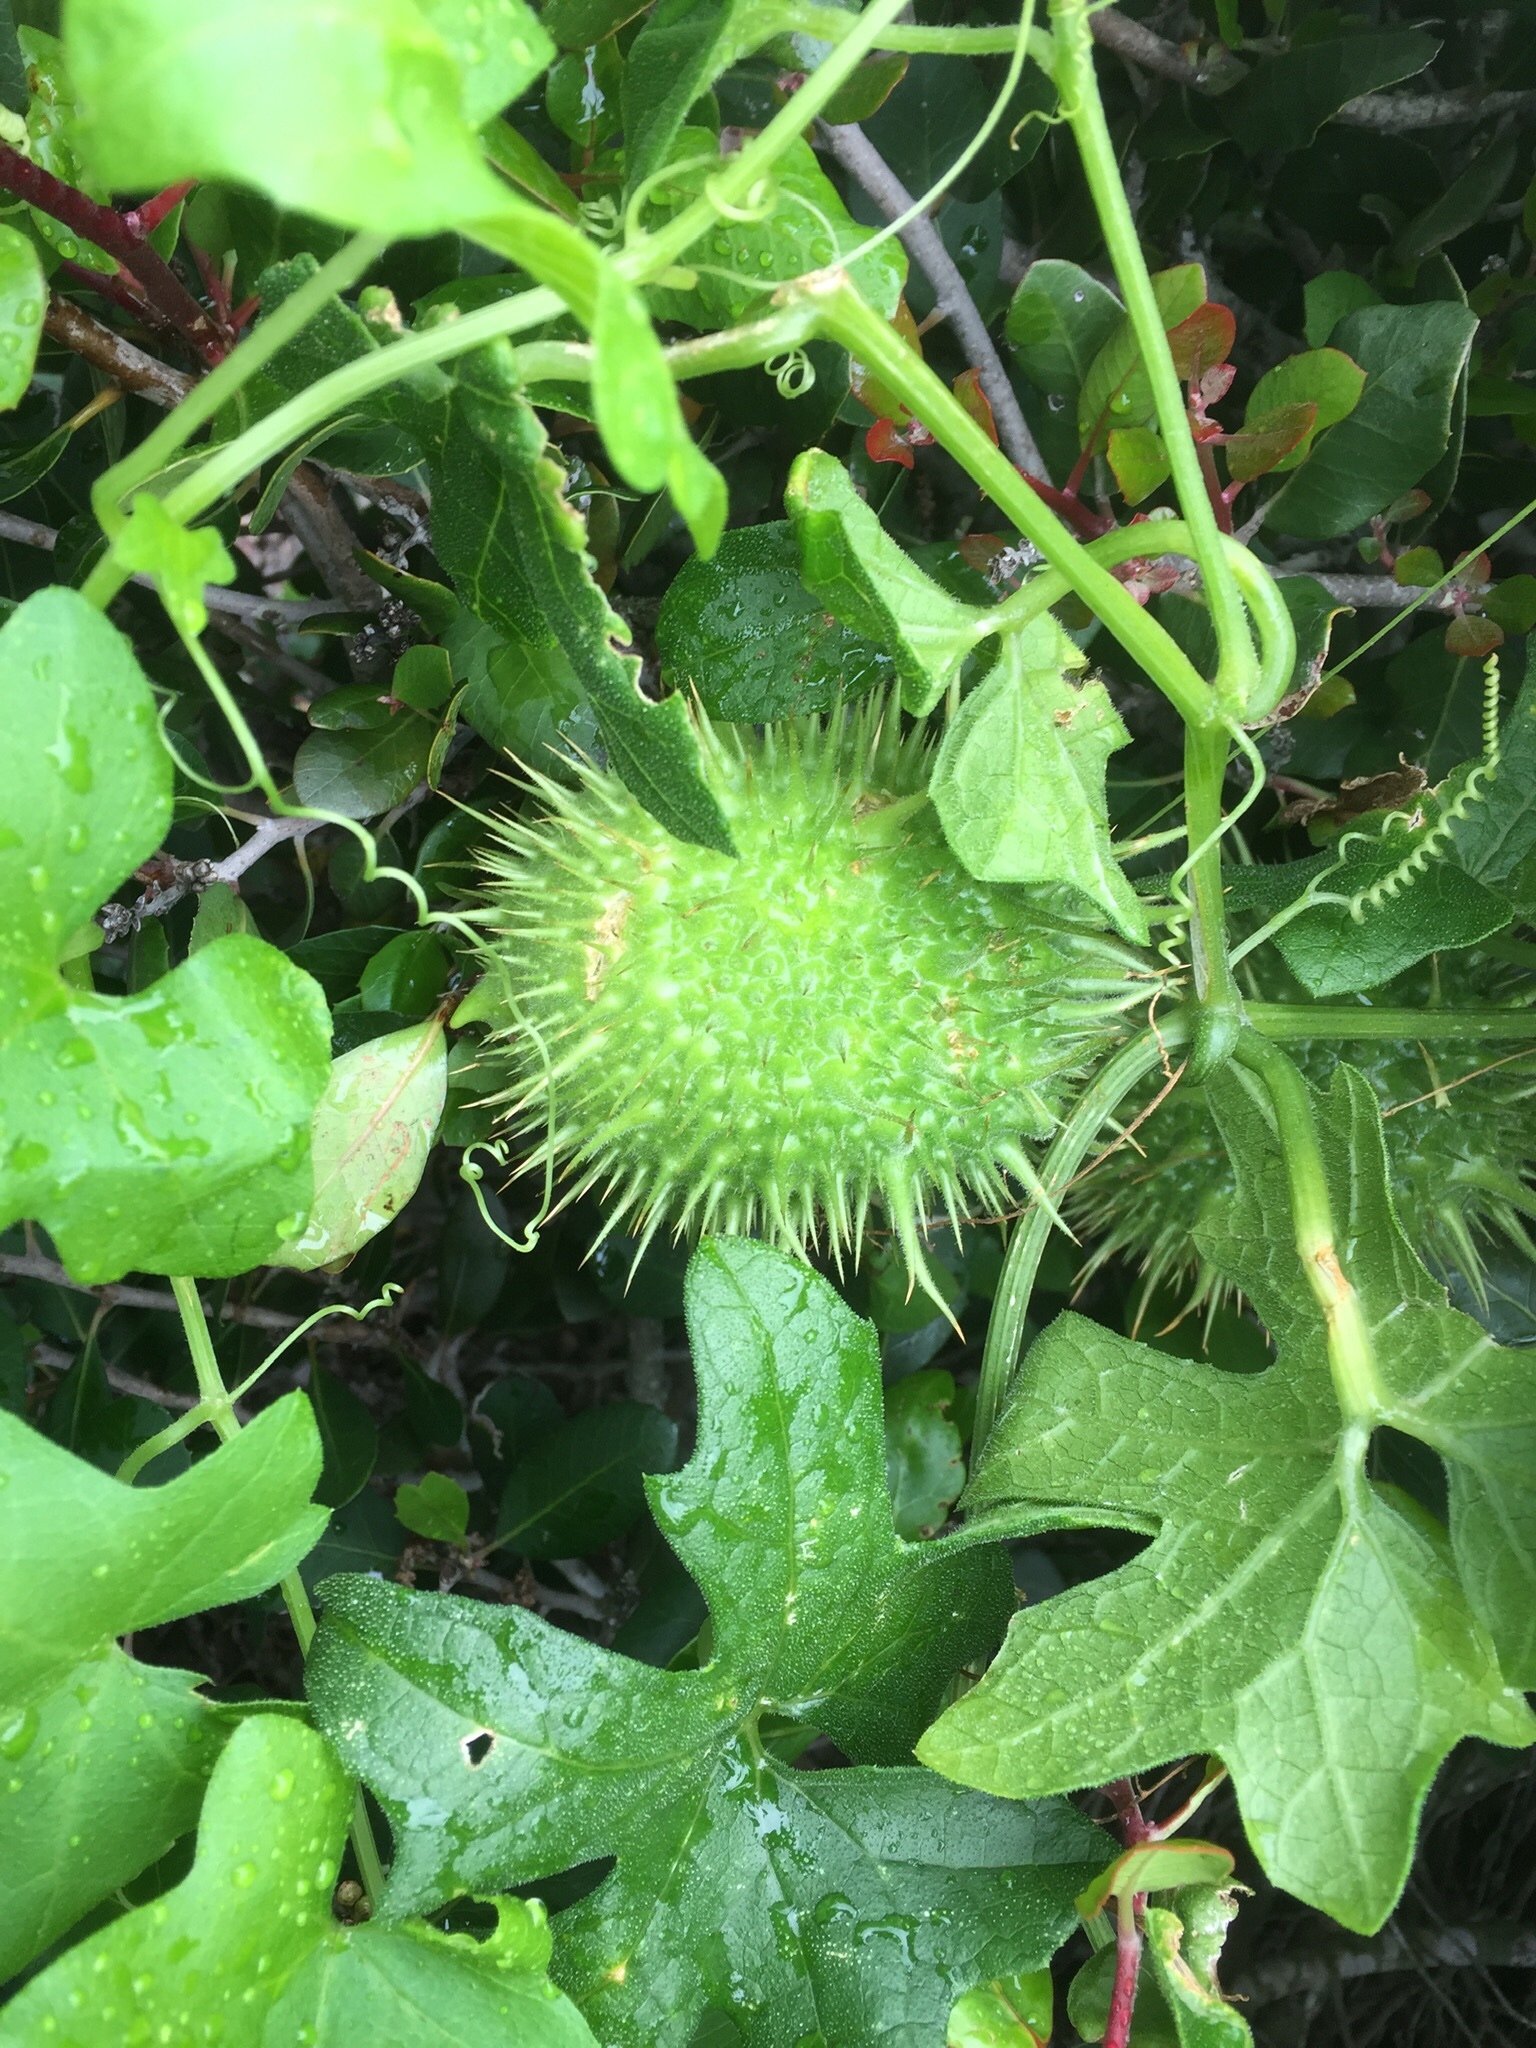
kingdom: Plantae
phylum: Tracheophyta
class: Magnoliopsida
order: Cucurbitales
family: Cucurbitaceae
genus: Marah
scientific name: Marah macrocarpa
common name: Cucamonga manroot
